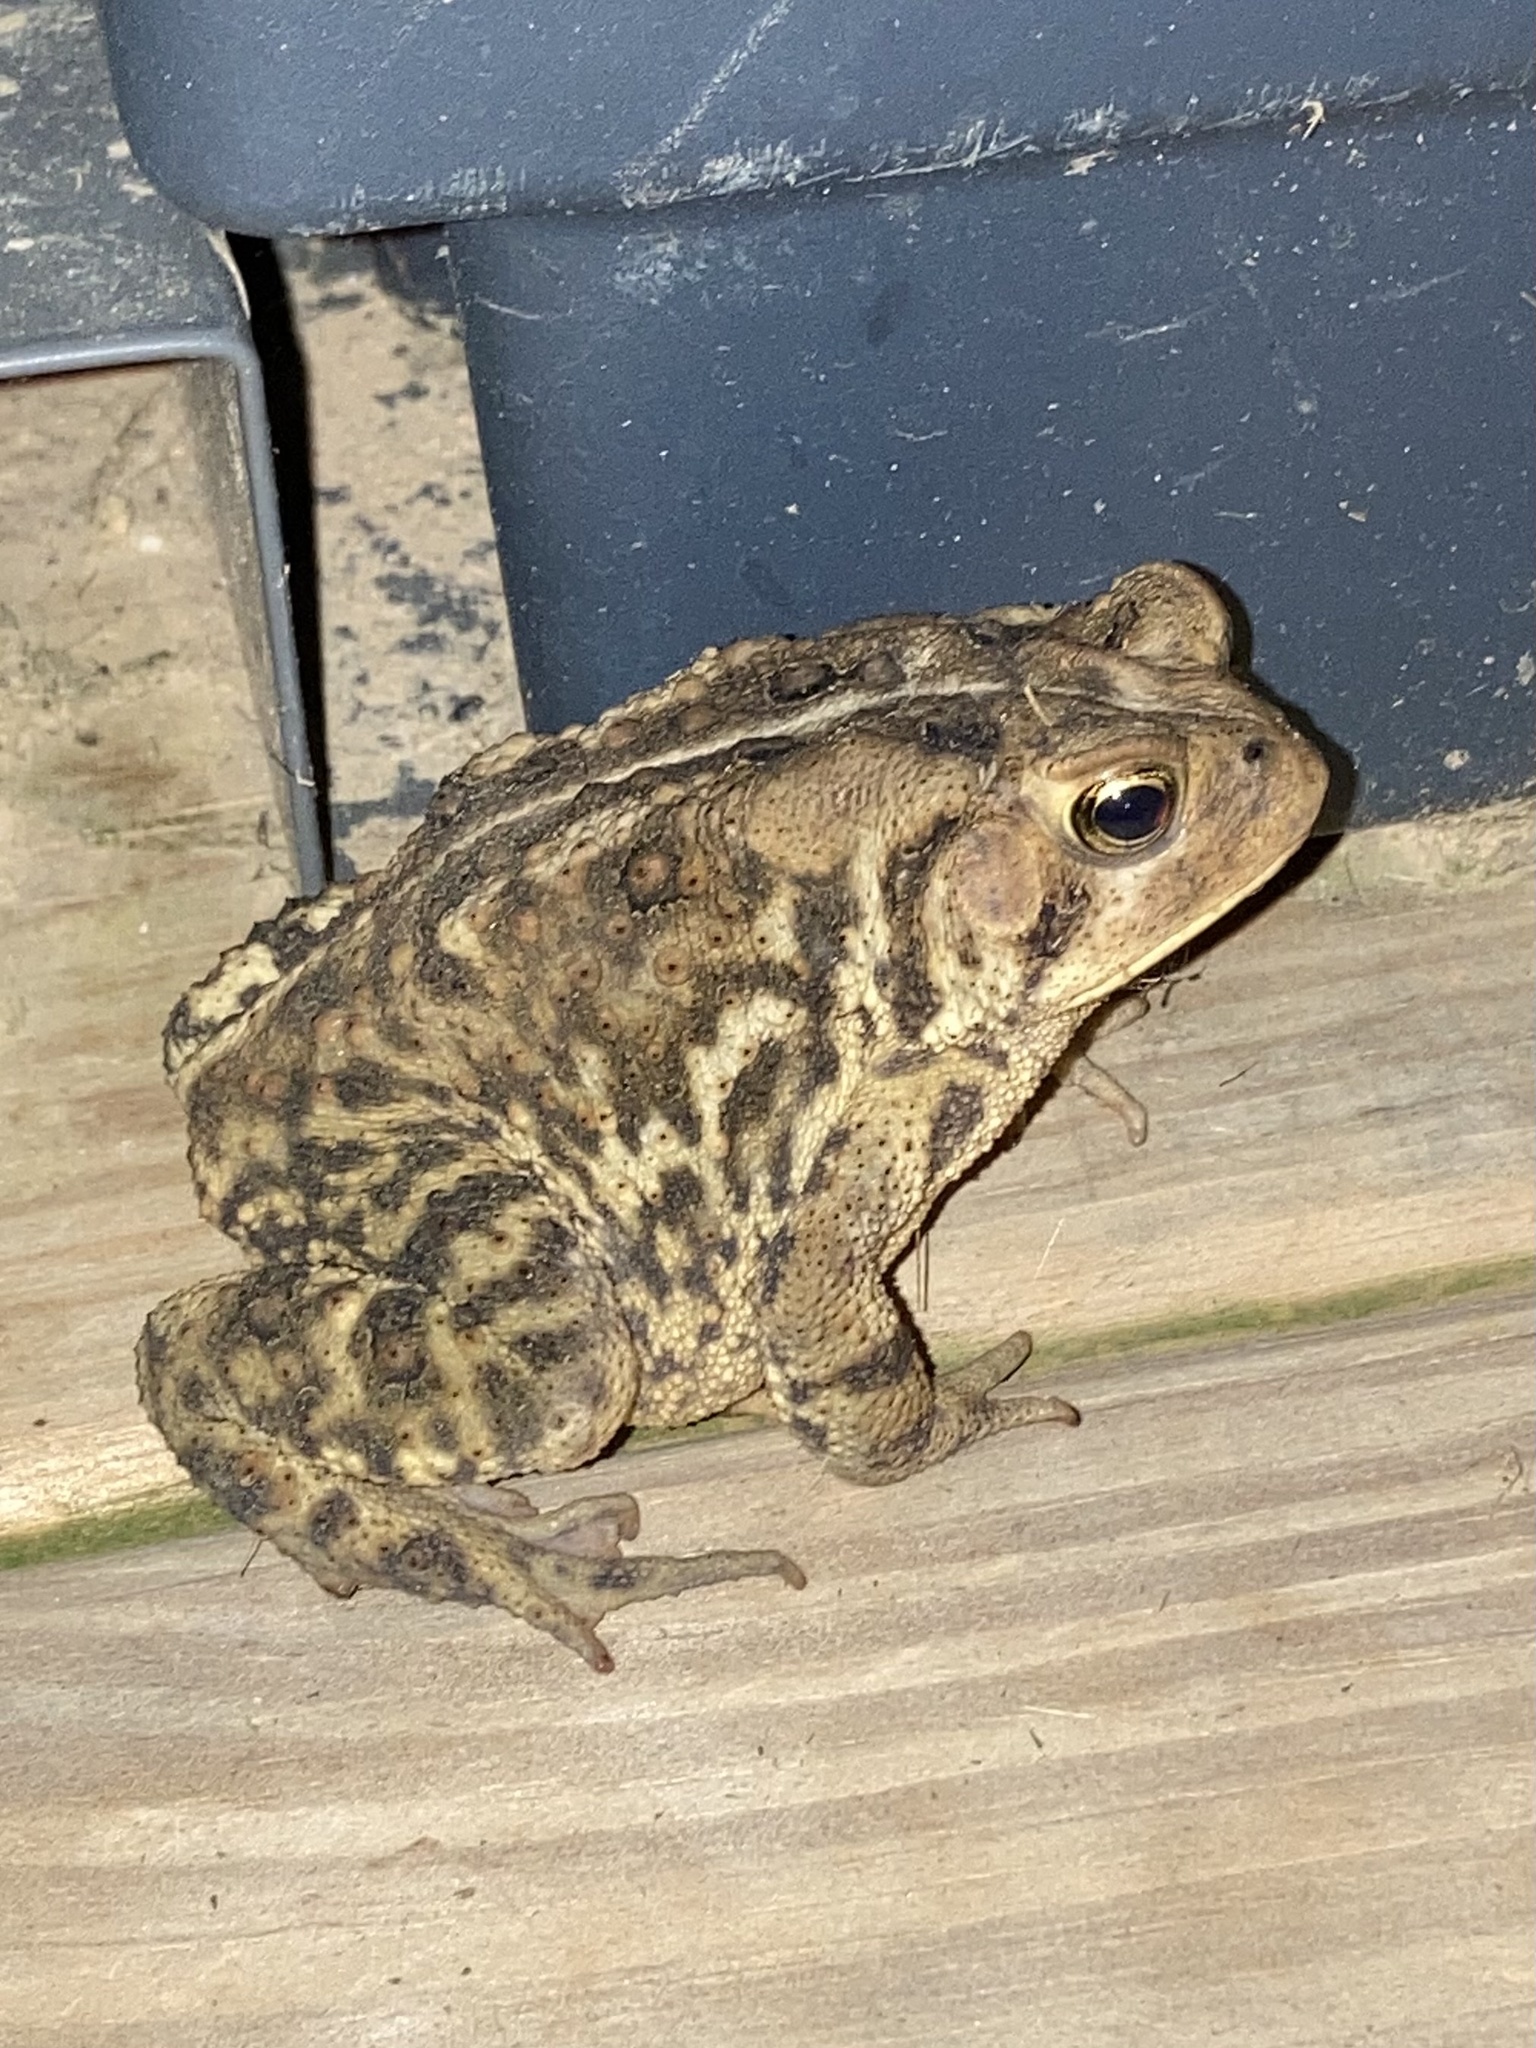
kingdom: Animalia
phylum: Chordata
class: Amphibia
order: Anura
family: Bufonidae
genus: Anaxyrus
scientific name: Anaxyrus fowleri
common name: Fowler's toad
